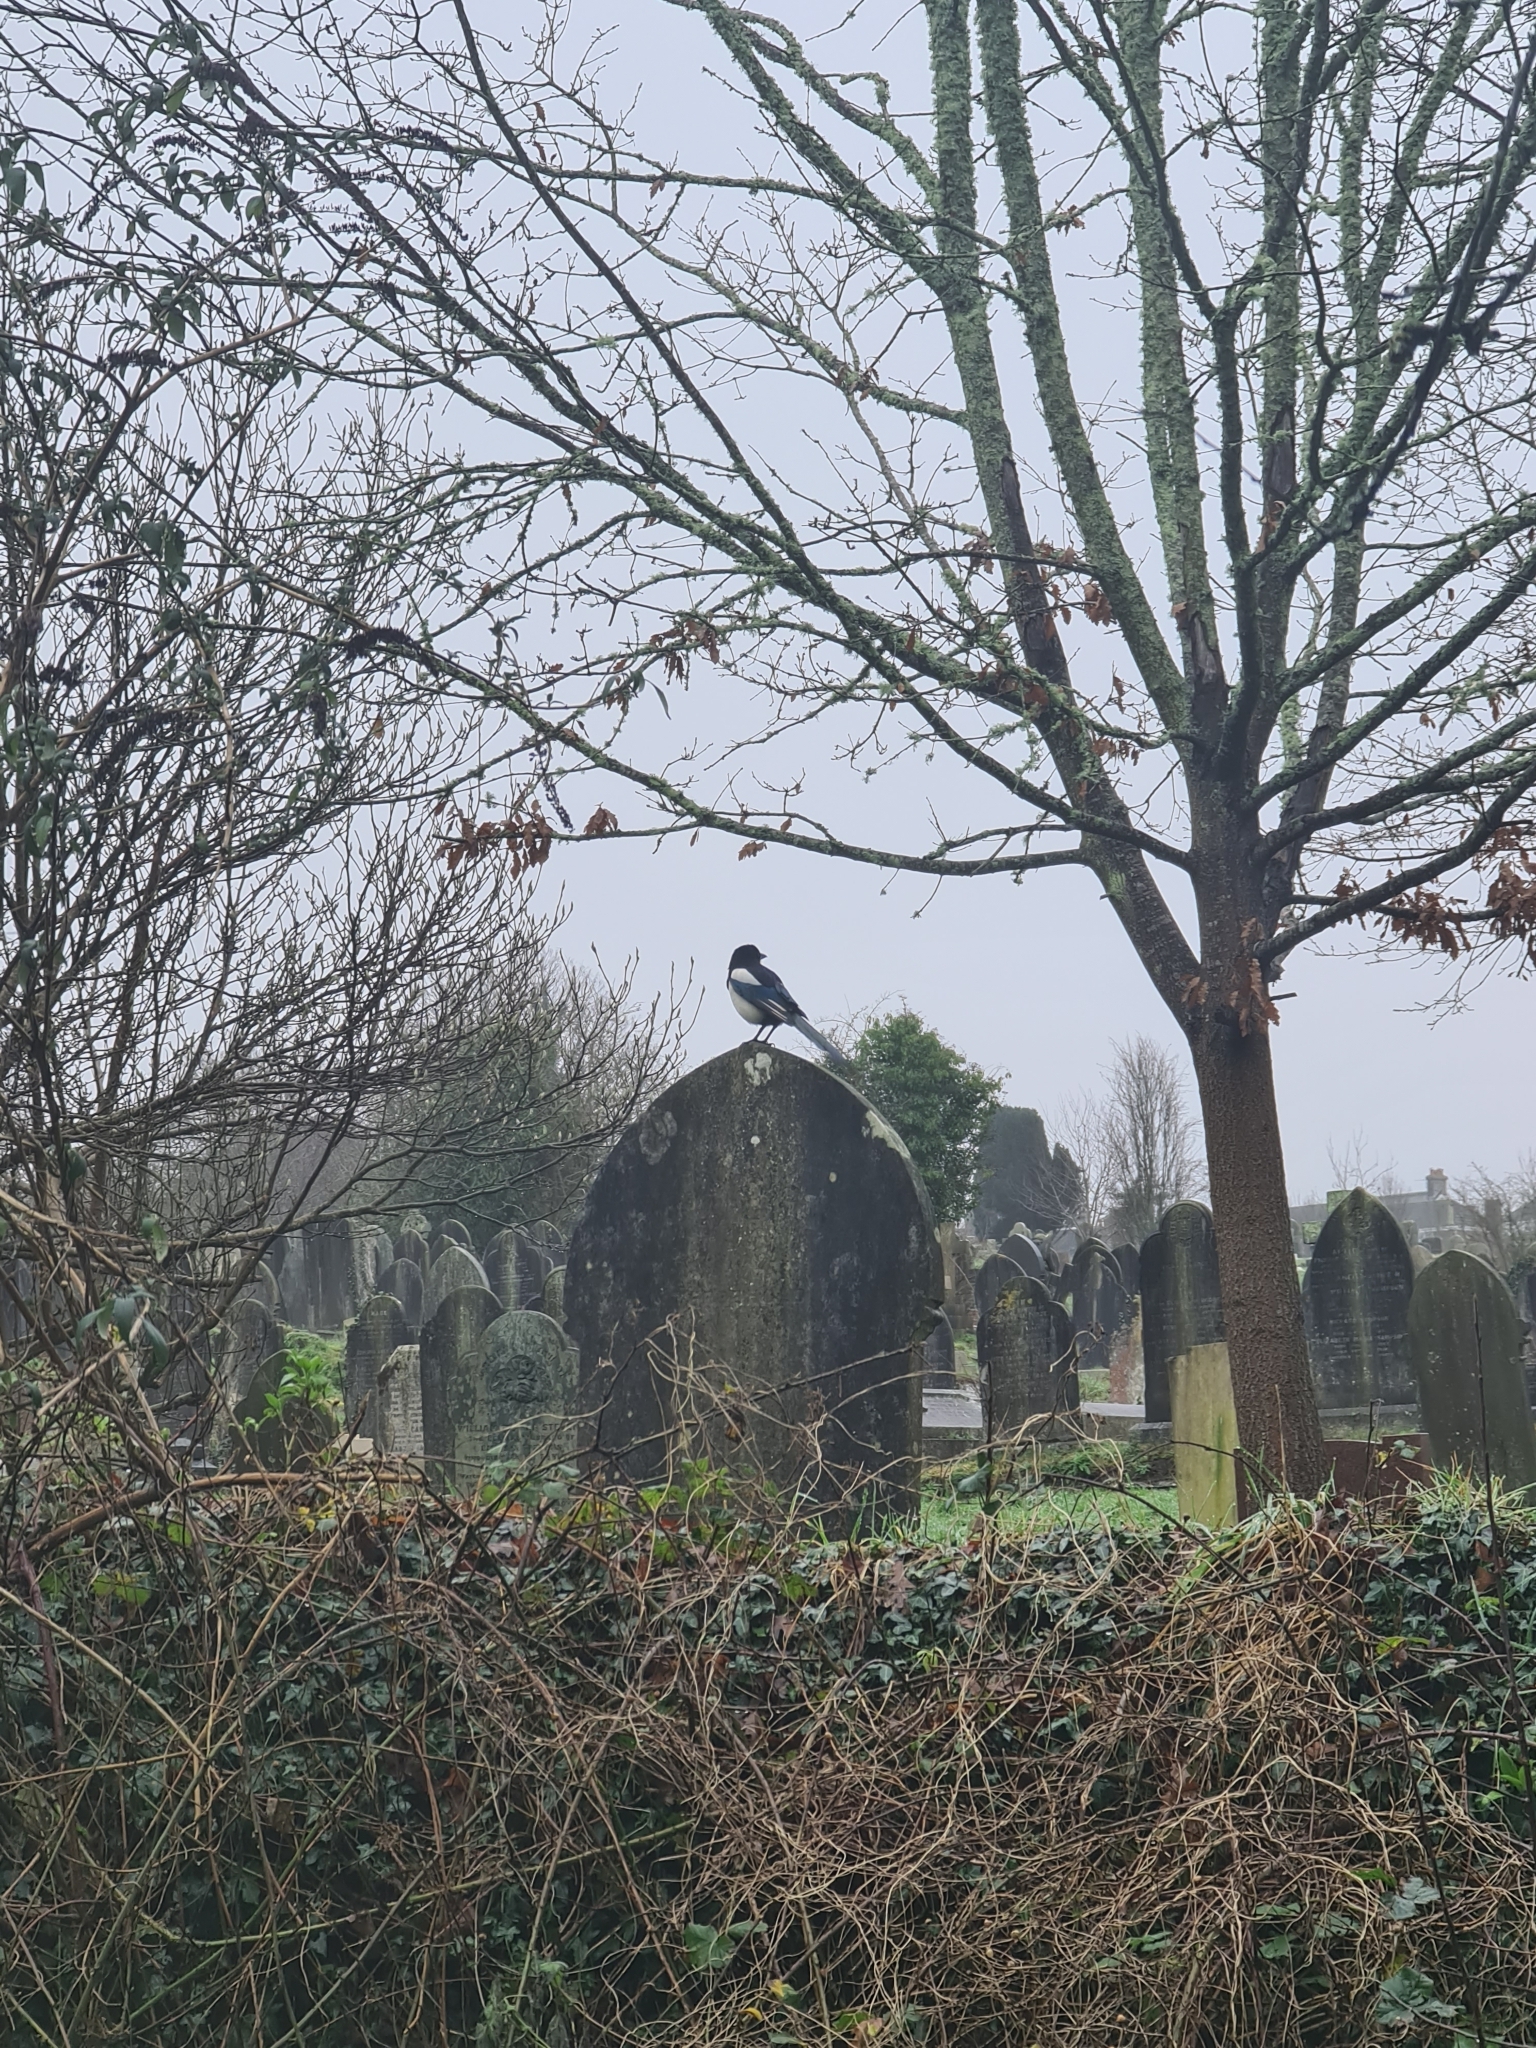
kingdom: Animalia
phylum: Chordata
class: Aves
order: Passeriformes
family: Corvidae
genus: Pica
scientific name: Pica pica
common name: Eurasian magpie
